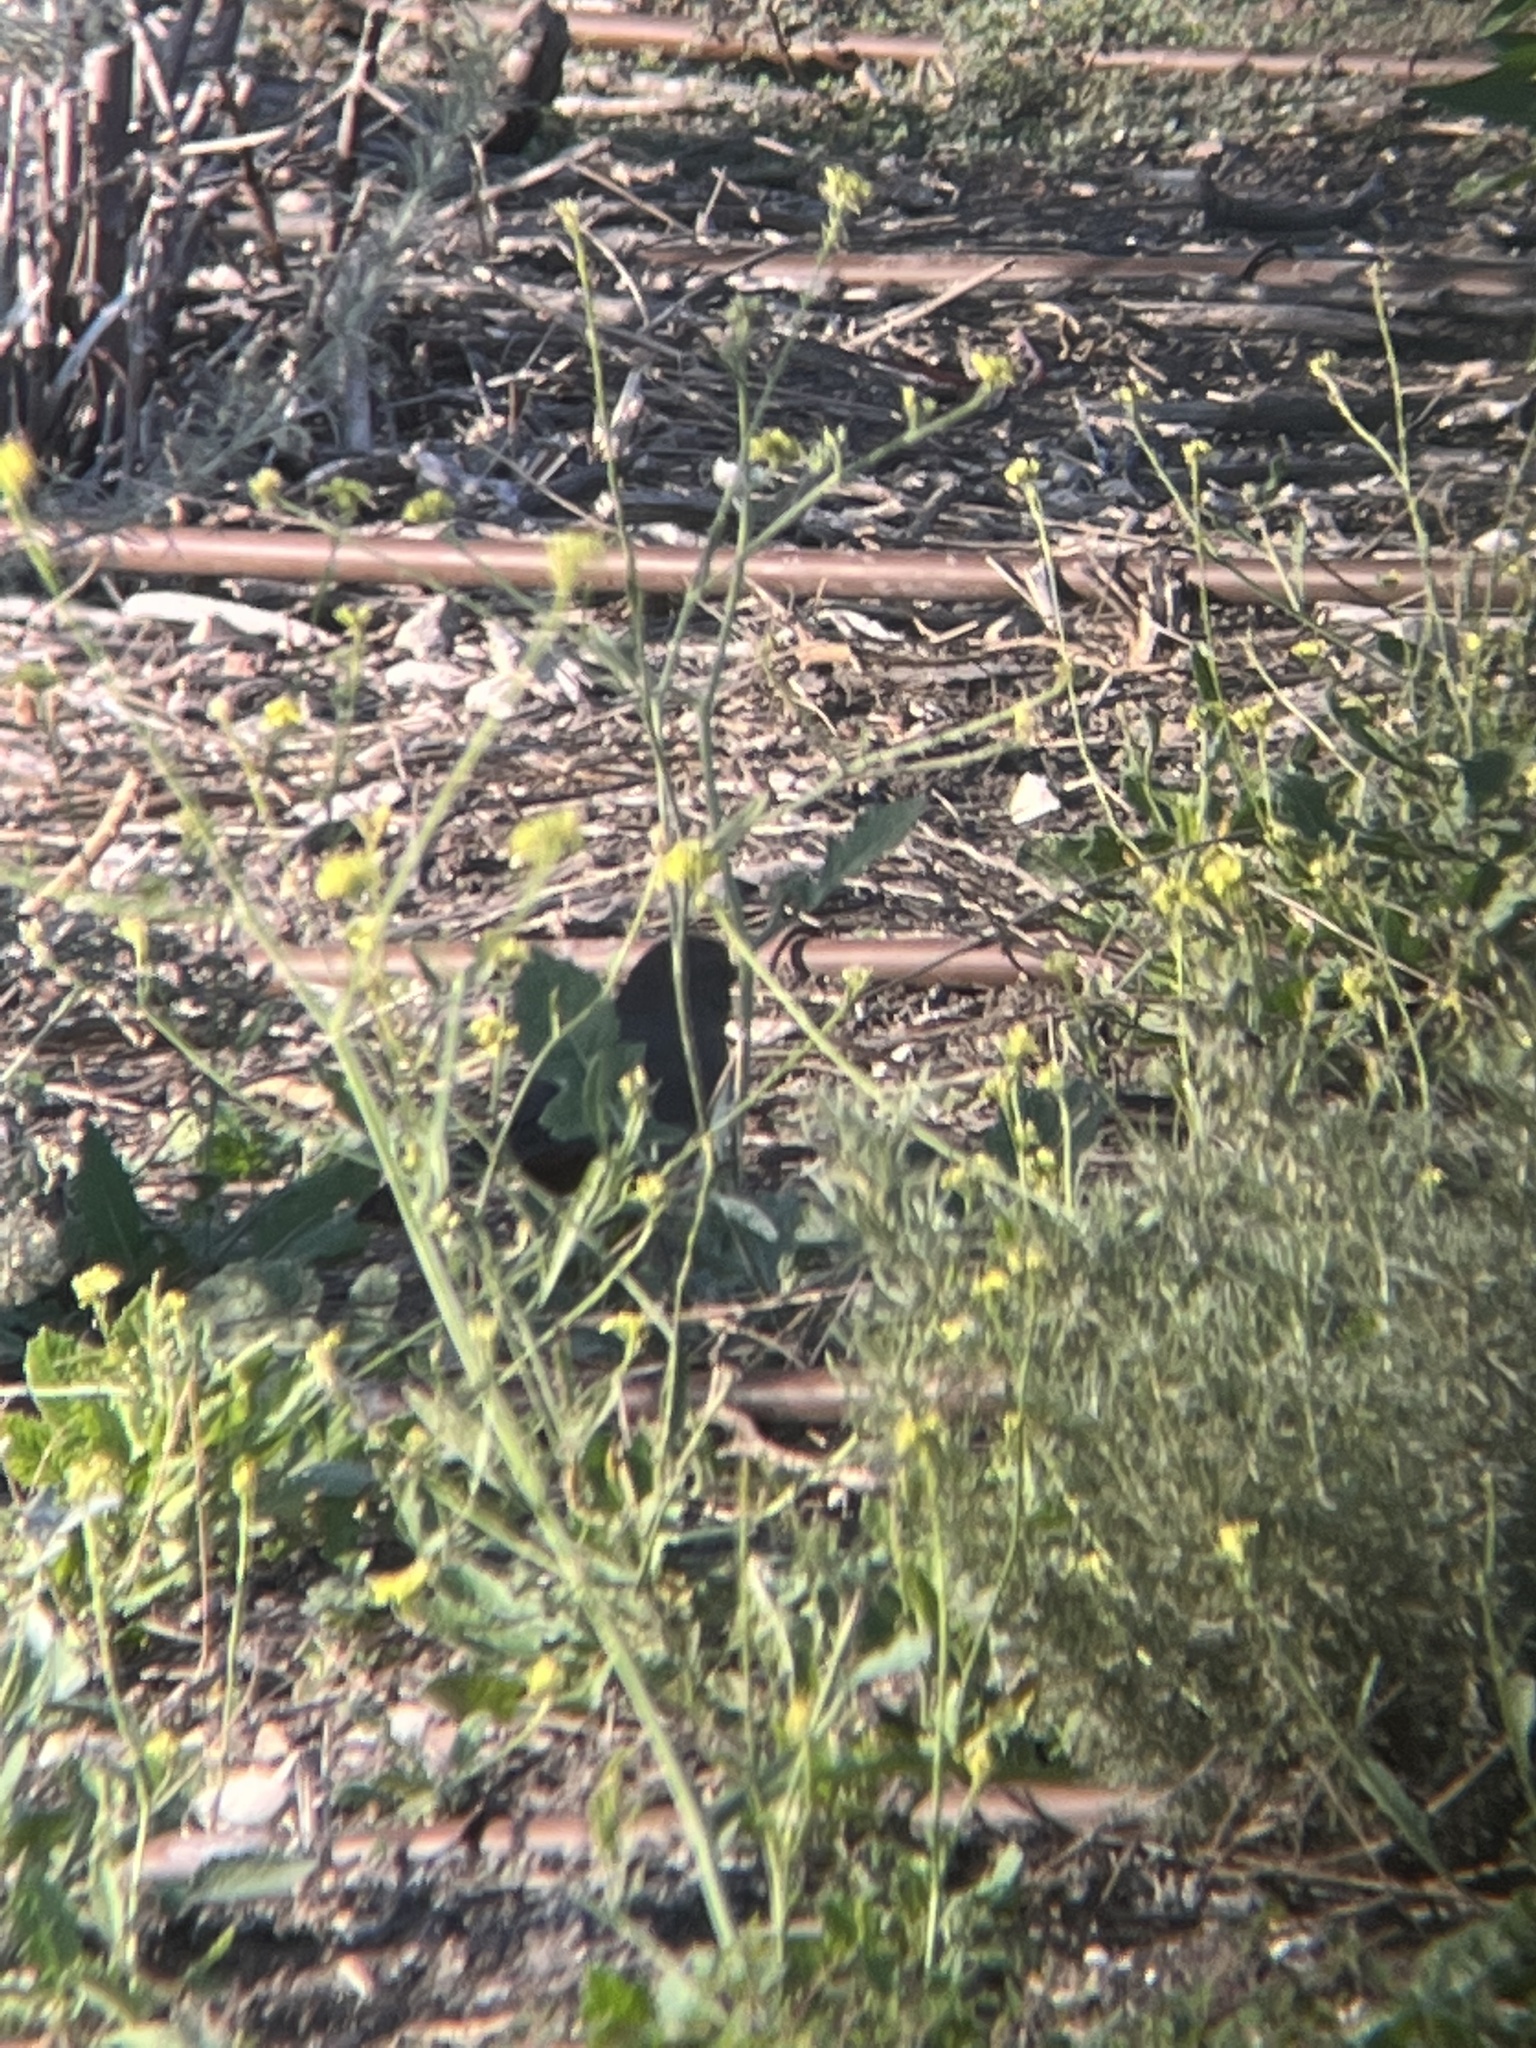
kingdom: Animalia
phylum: Chordata
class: Aves
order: Passeriformes
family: Passerellidae
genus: Melozone
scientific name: Melozone crissalis
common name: California towhee
